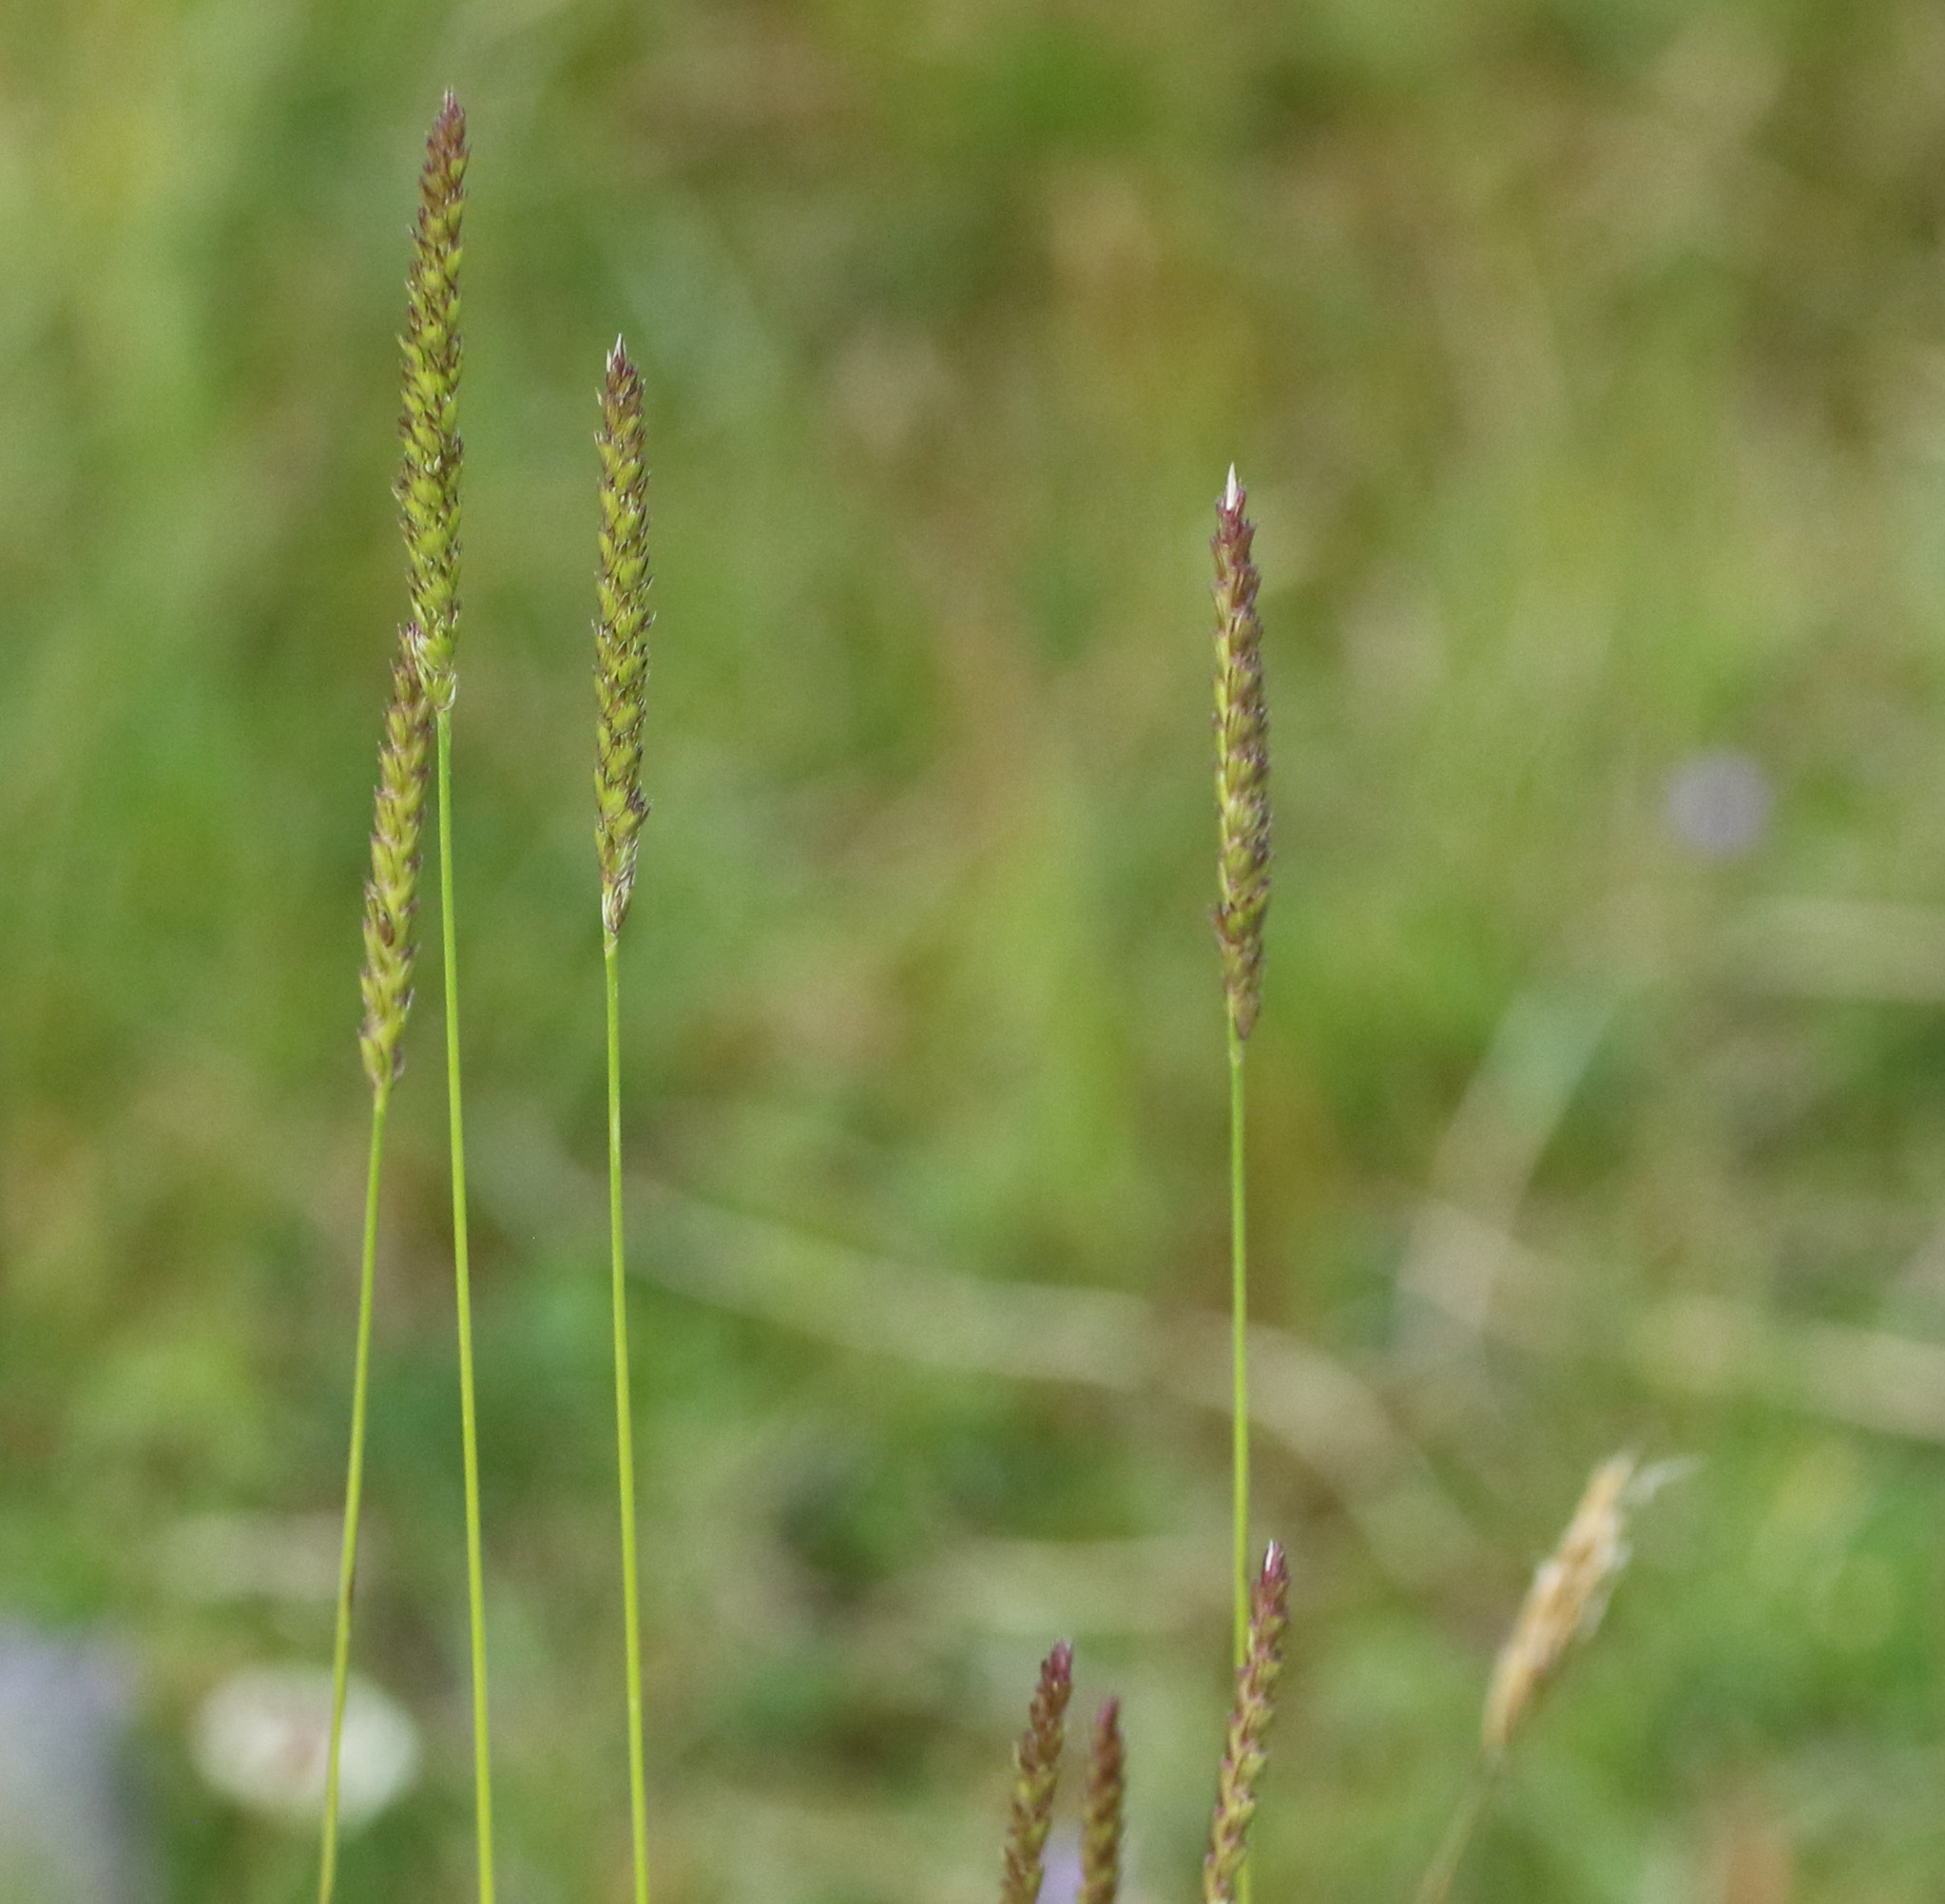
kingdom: Plantae
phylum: Tracheophyta
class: Liliopsida
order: Poales
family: Poaceae
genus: Cynosurus
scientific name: Cynosurus cristatus
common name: Crested dog's-tail
